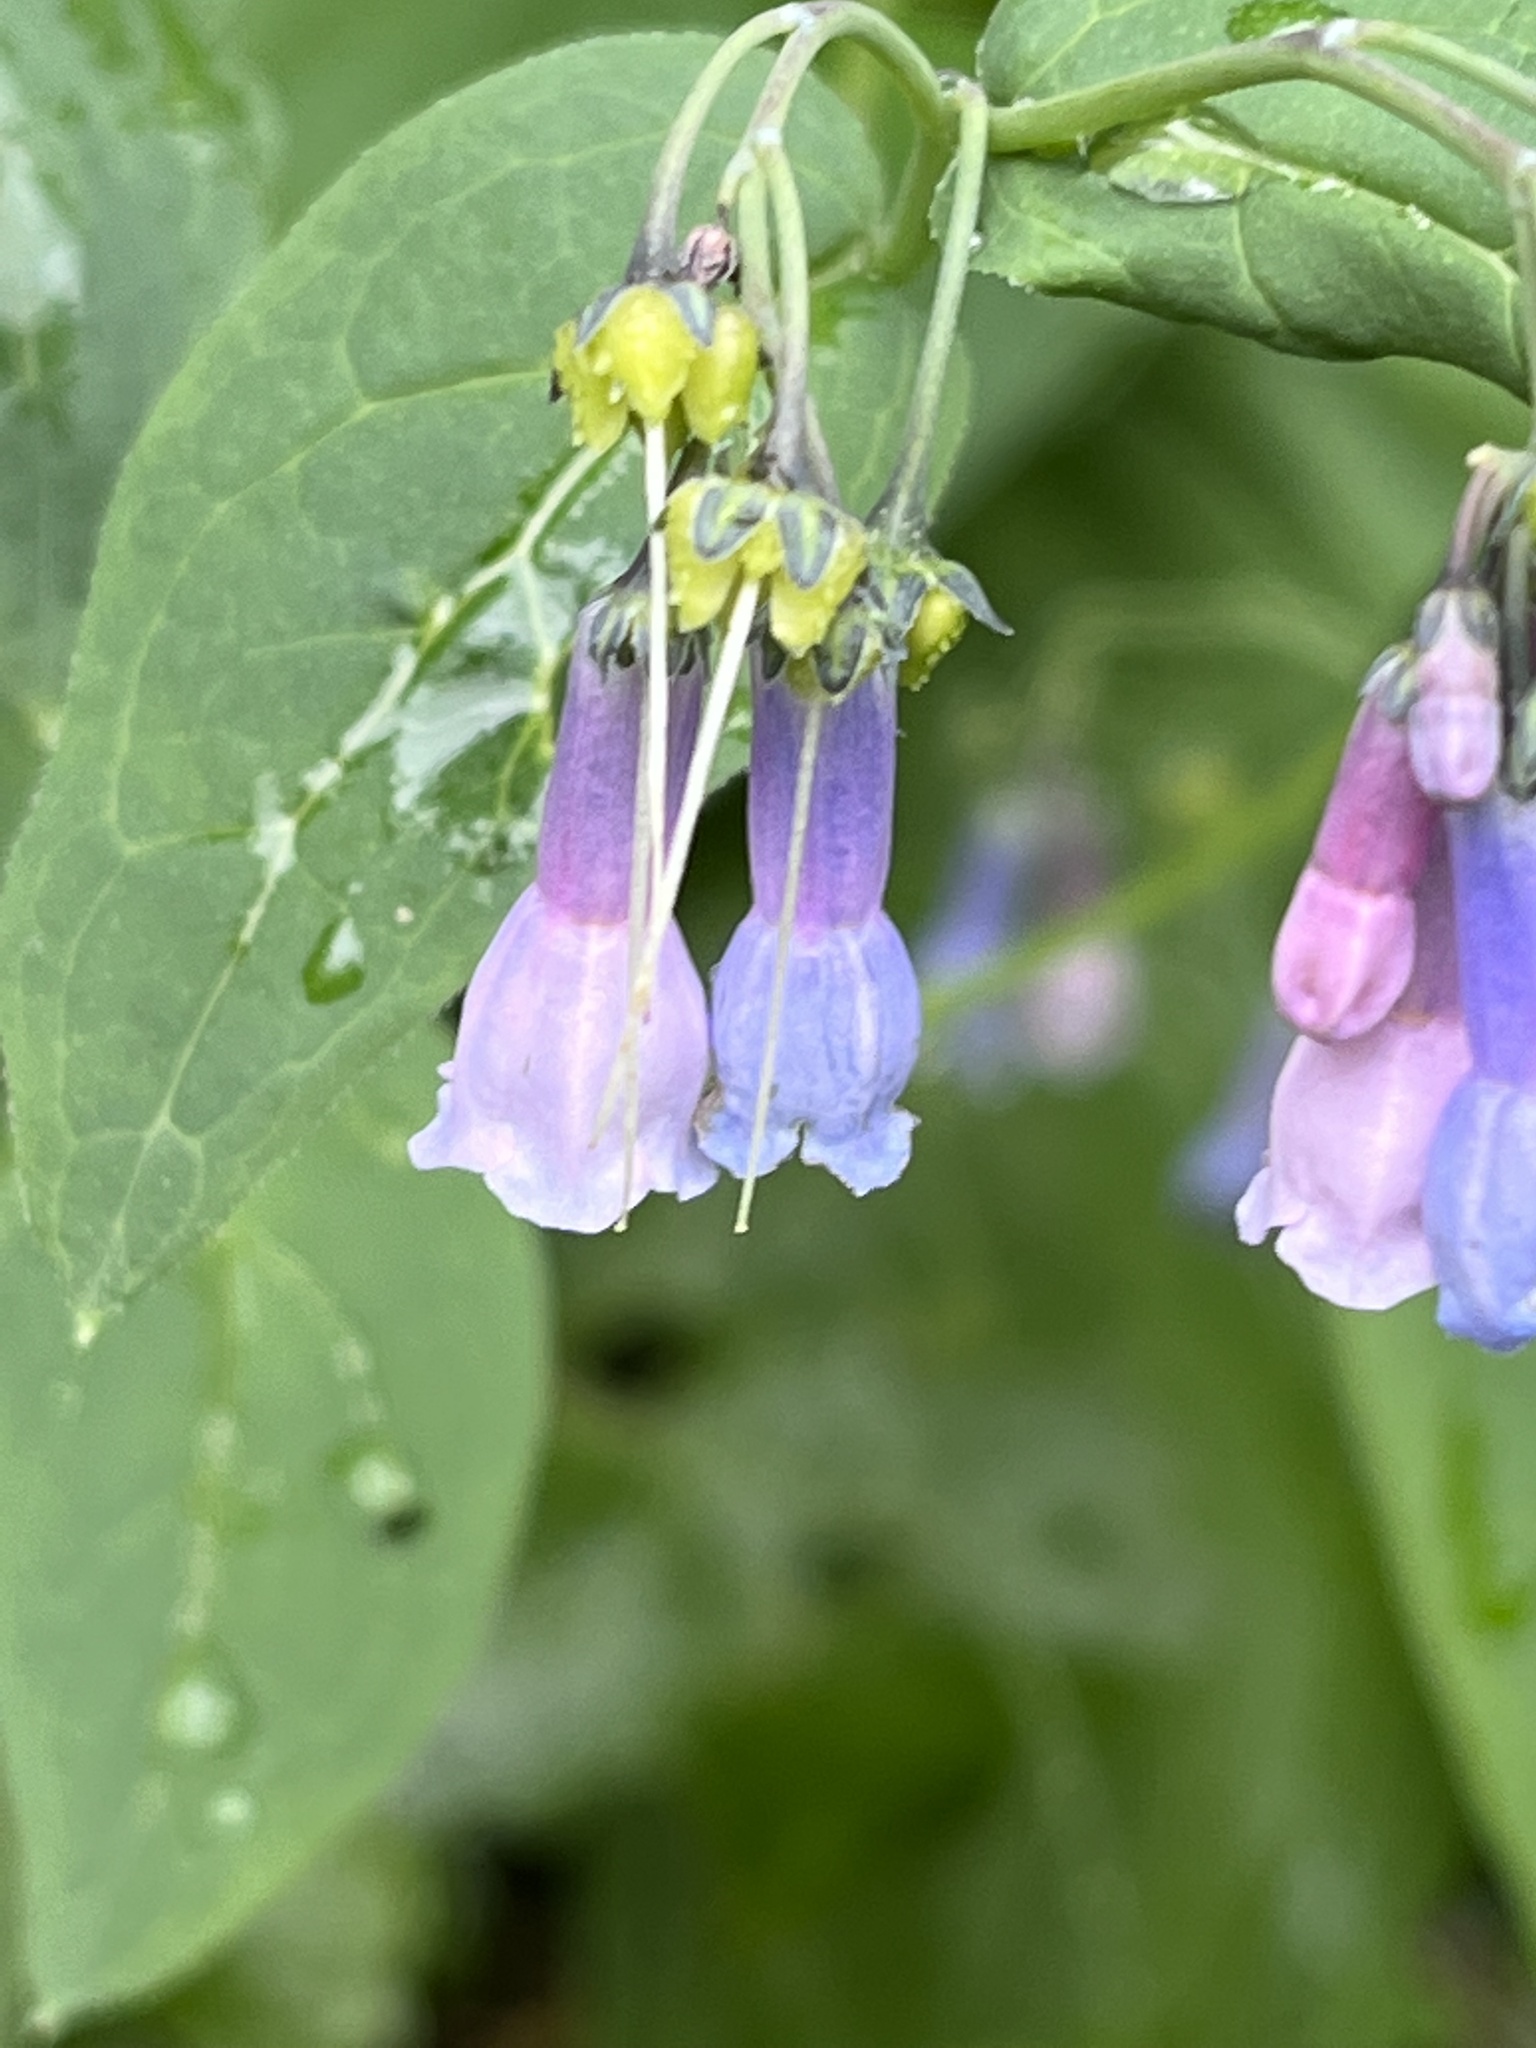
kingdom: Plantae
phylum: Tracheophyta
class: Magnoliopsida
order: Boraginales
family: Boraginaceae
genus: Mertensia
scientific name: Mertensia ciliata
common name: Tall chiming-bells
